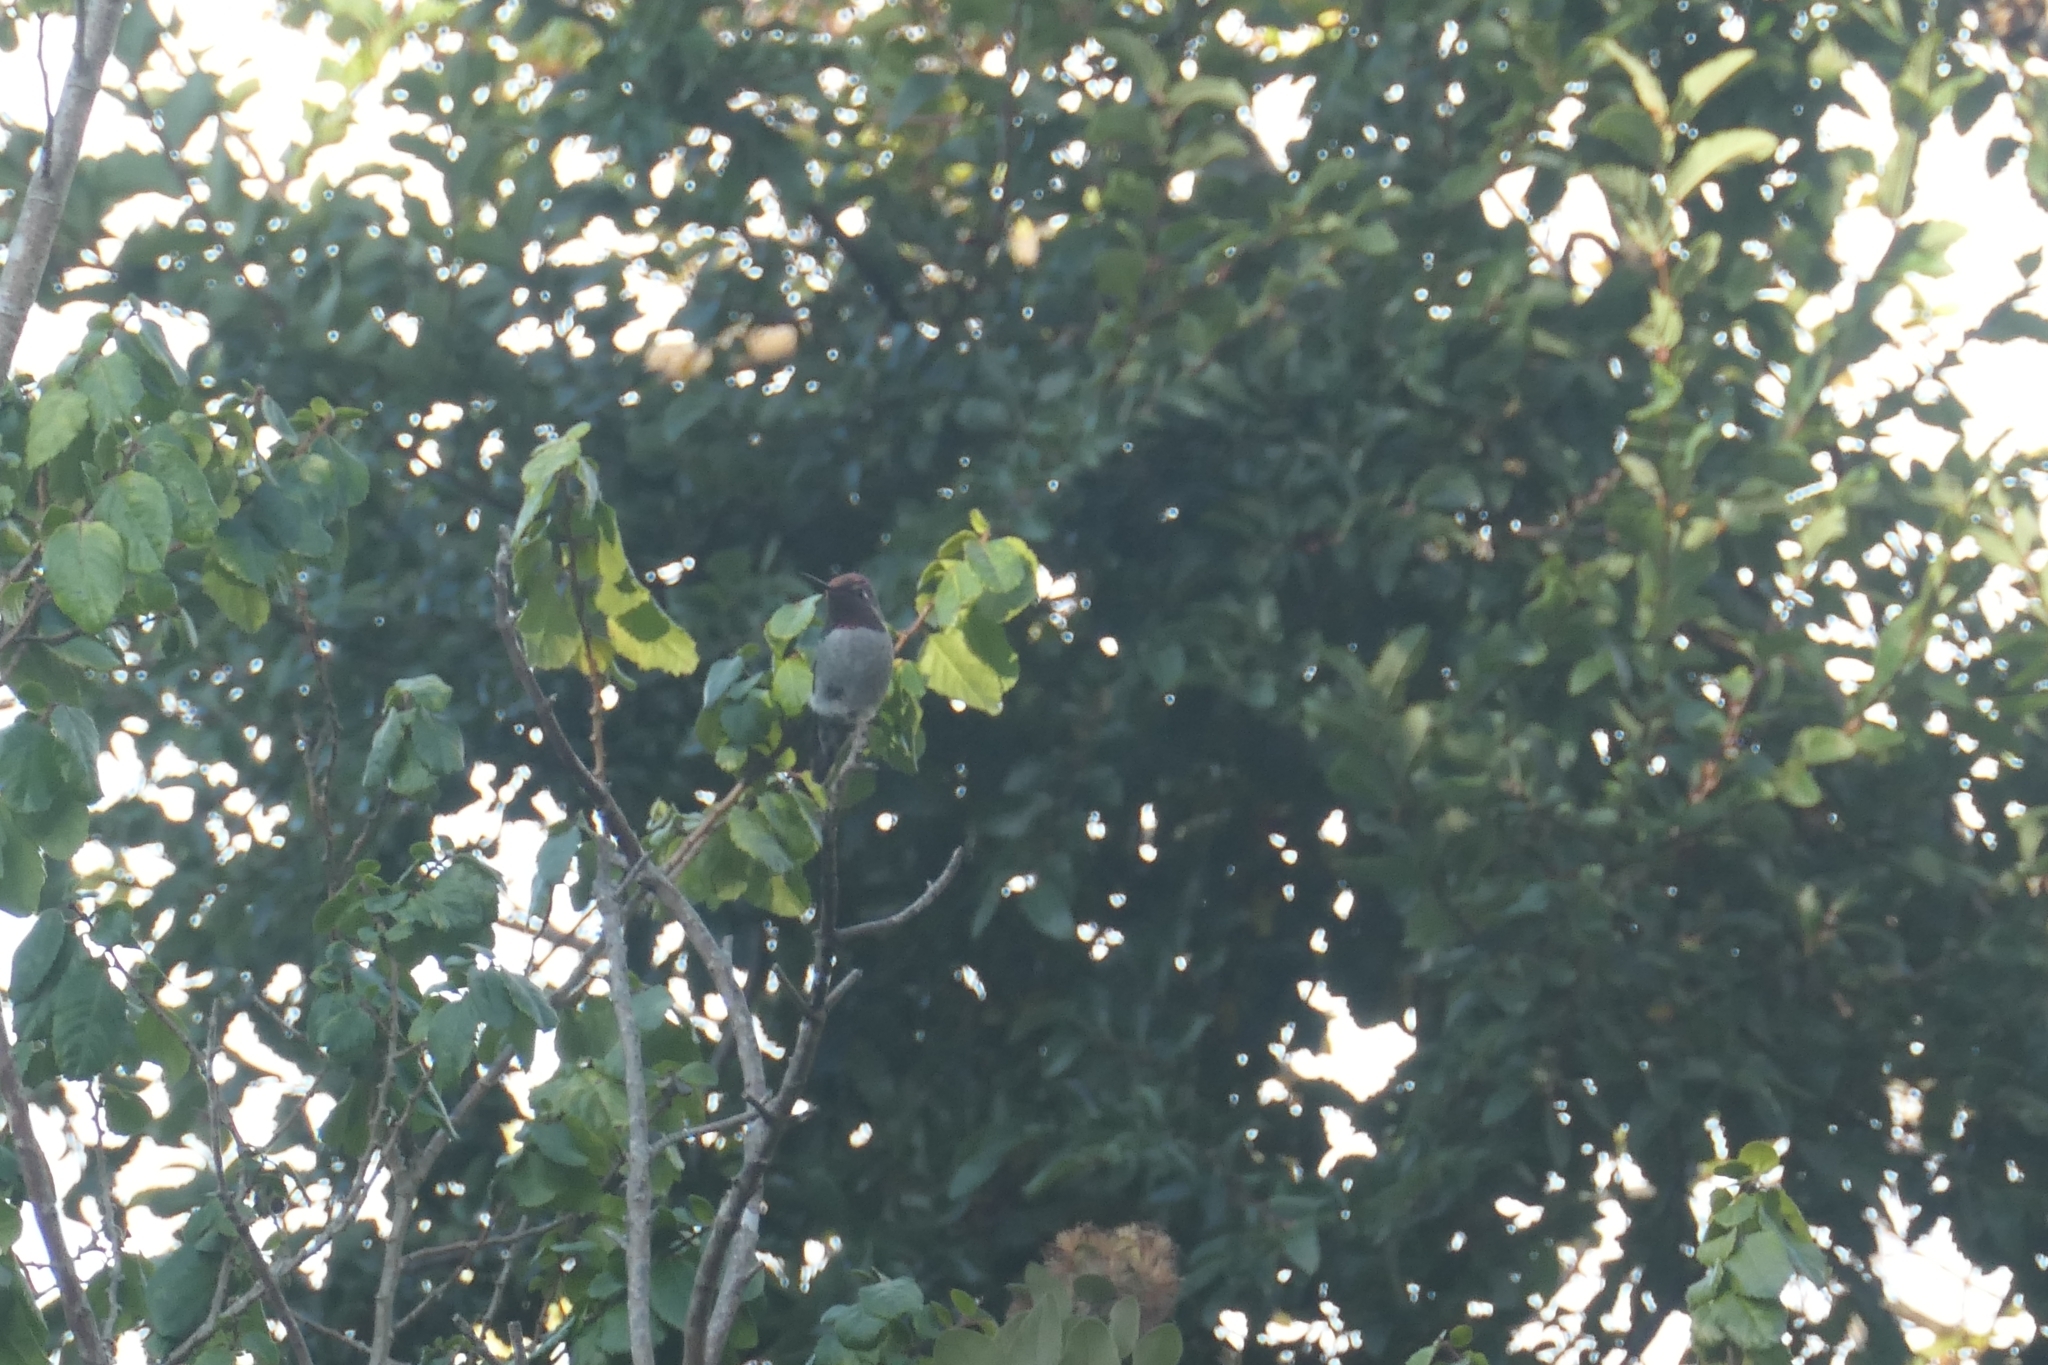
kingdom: Animalia
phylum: Chordata
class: Aves
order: Apodiformes
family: Trochilidae
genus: Calypte
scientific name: Calypte anna
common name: Anna's hummingbird
